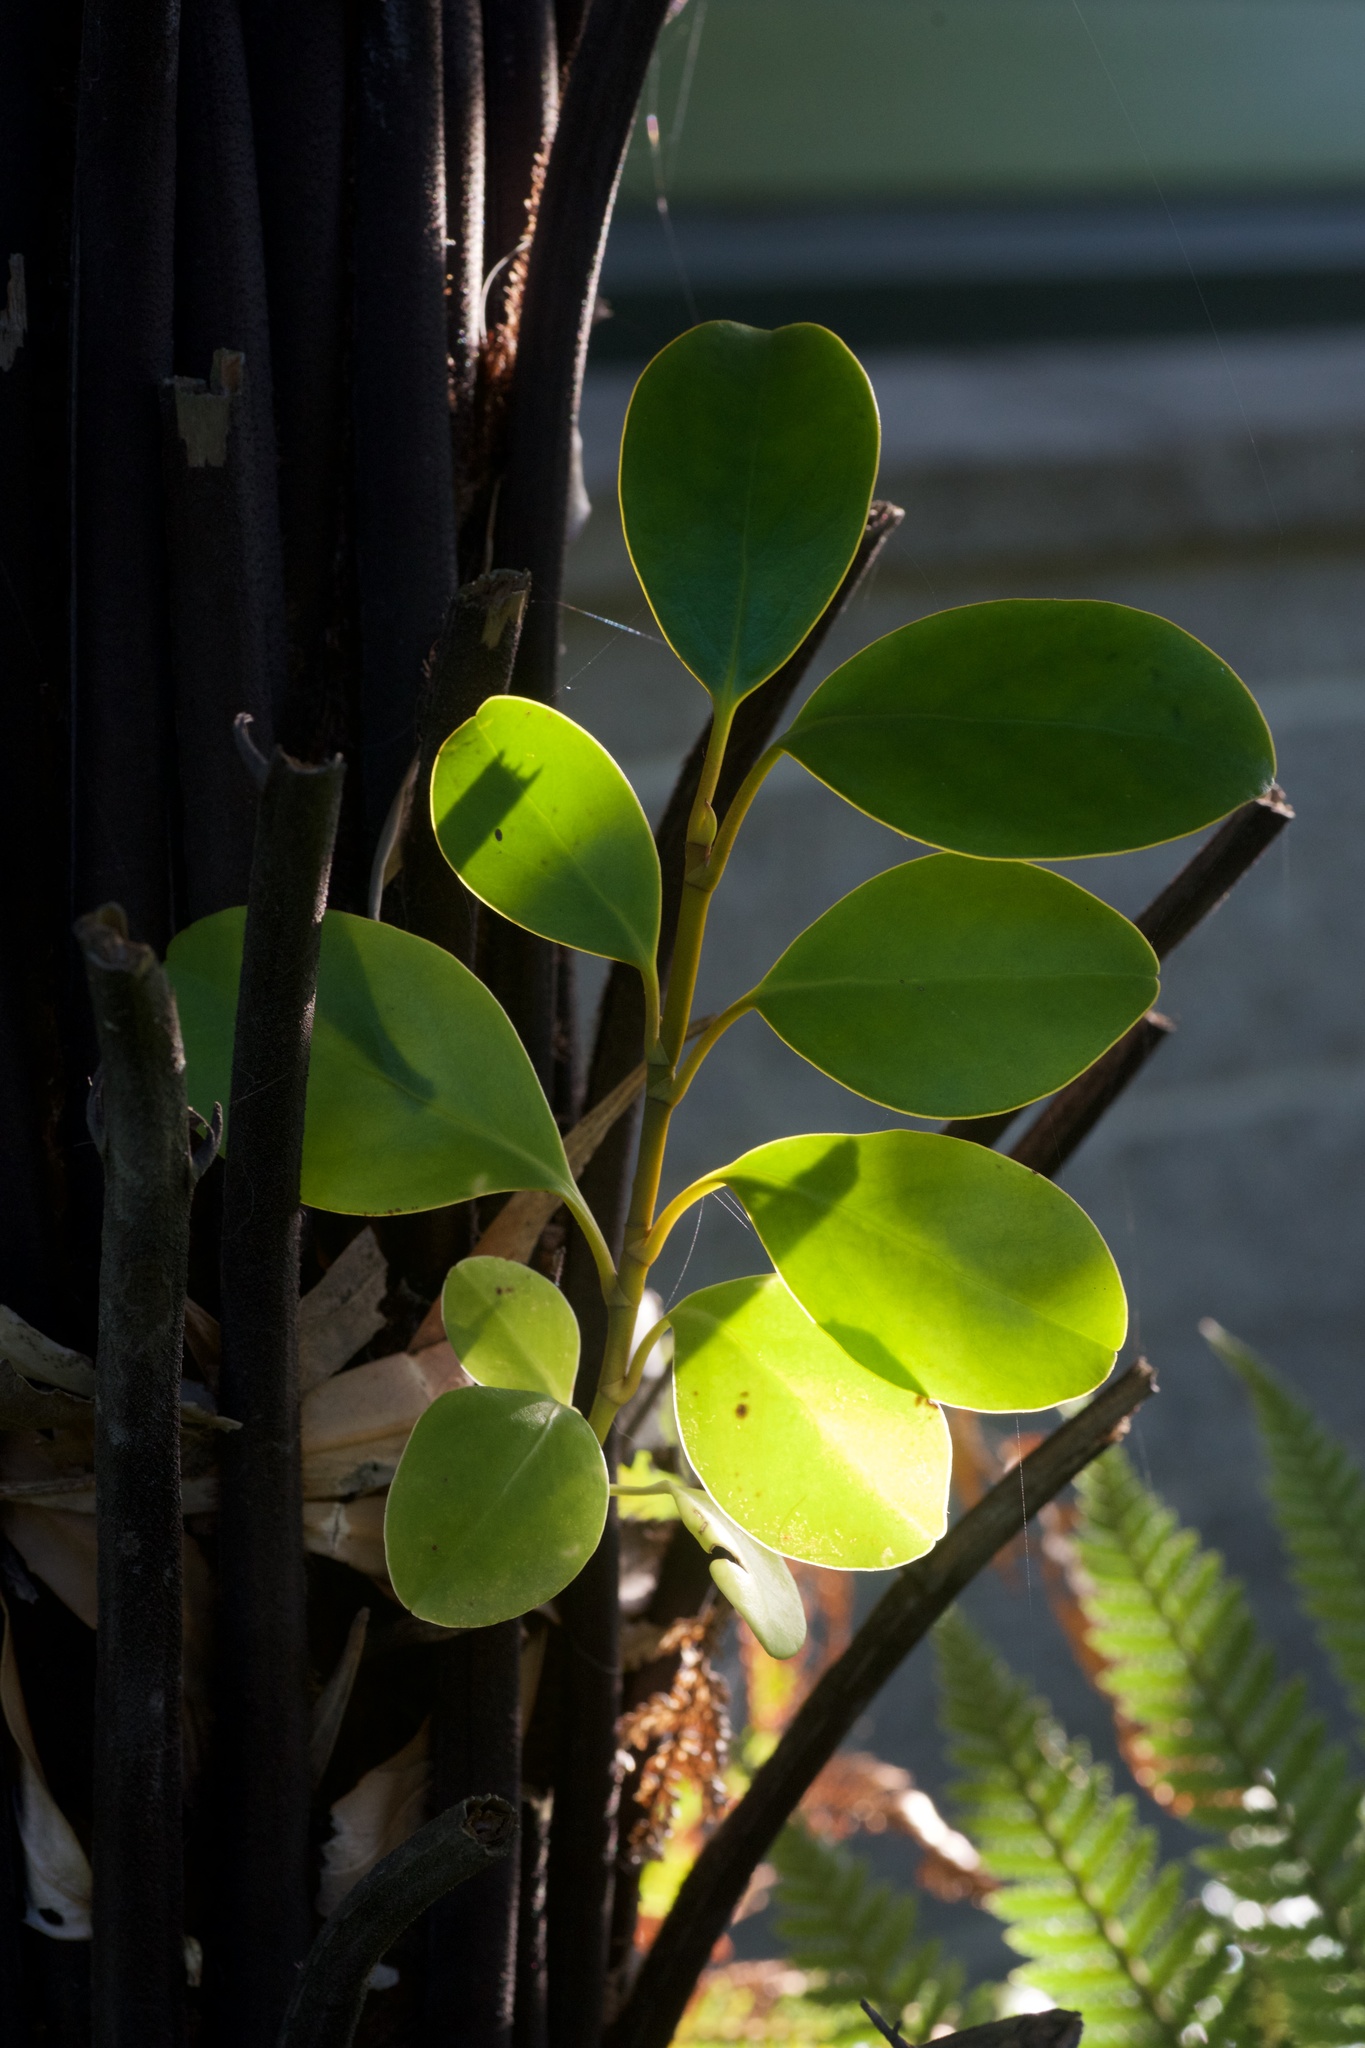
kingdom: Plantae
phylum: Tracheophyta
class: Magnoliopsida
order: Apiales
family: Griseliniaceae
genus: Griselinia
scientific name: Griselinia littoralis
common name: New zealand broadleaf
